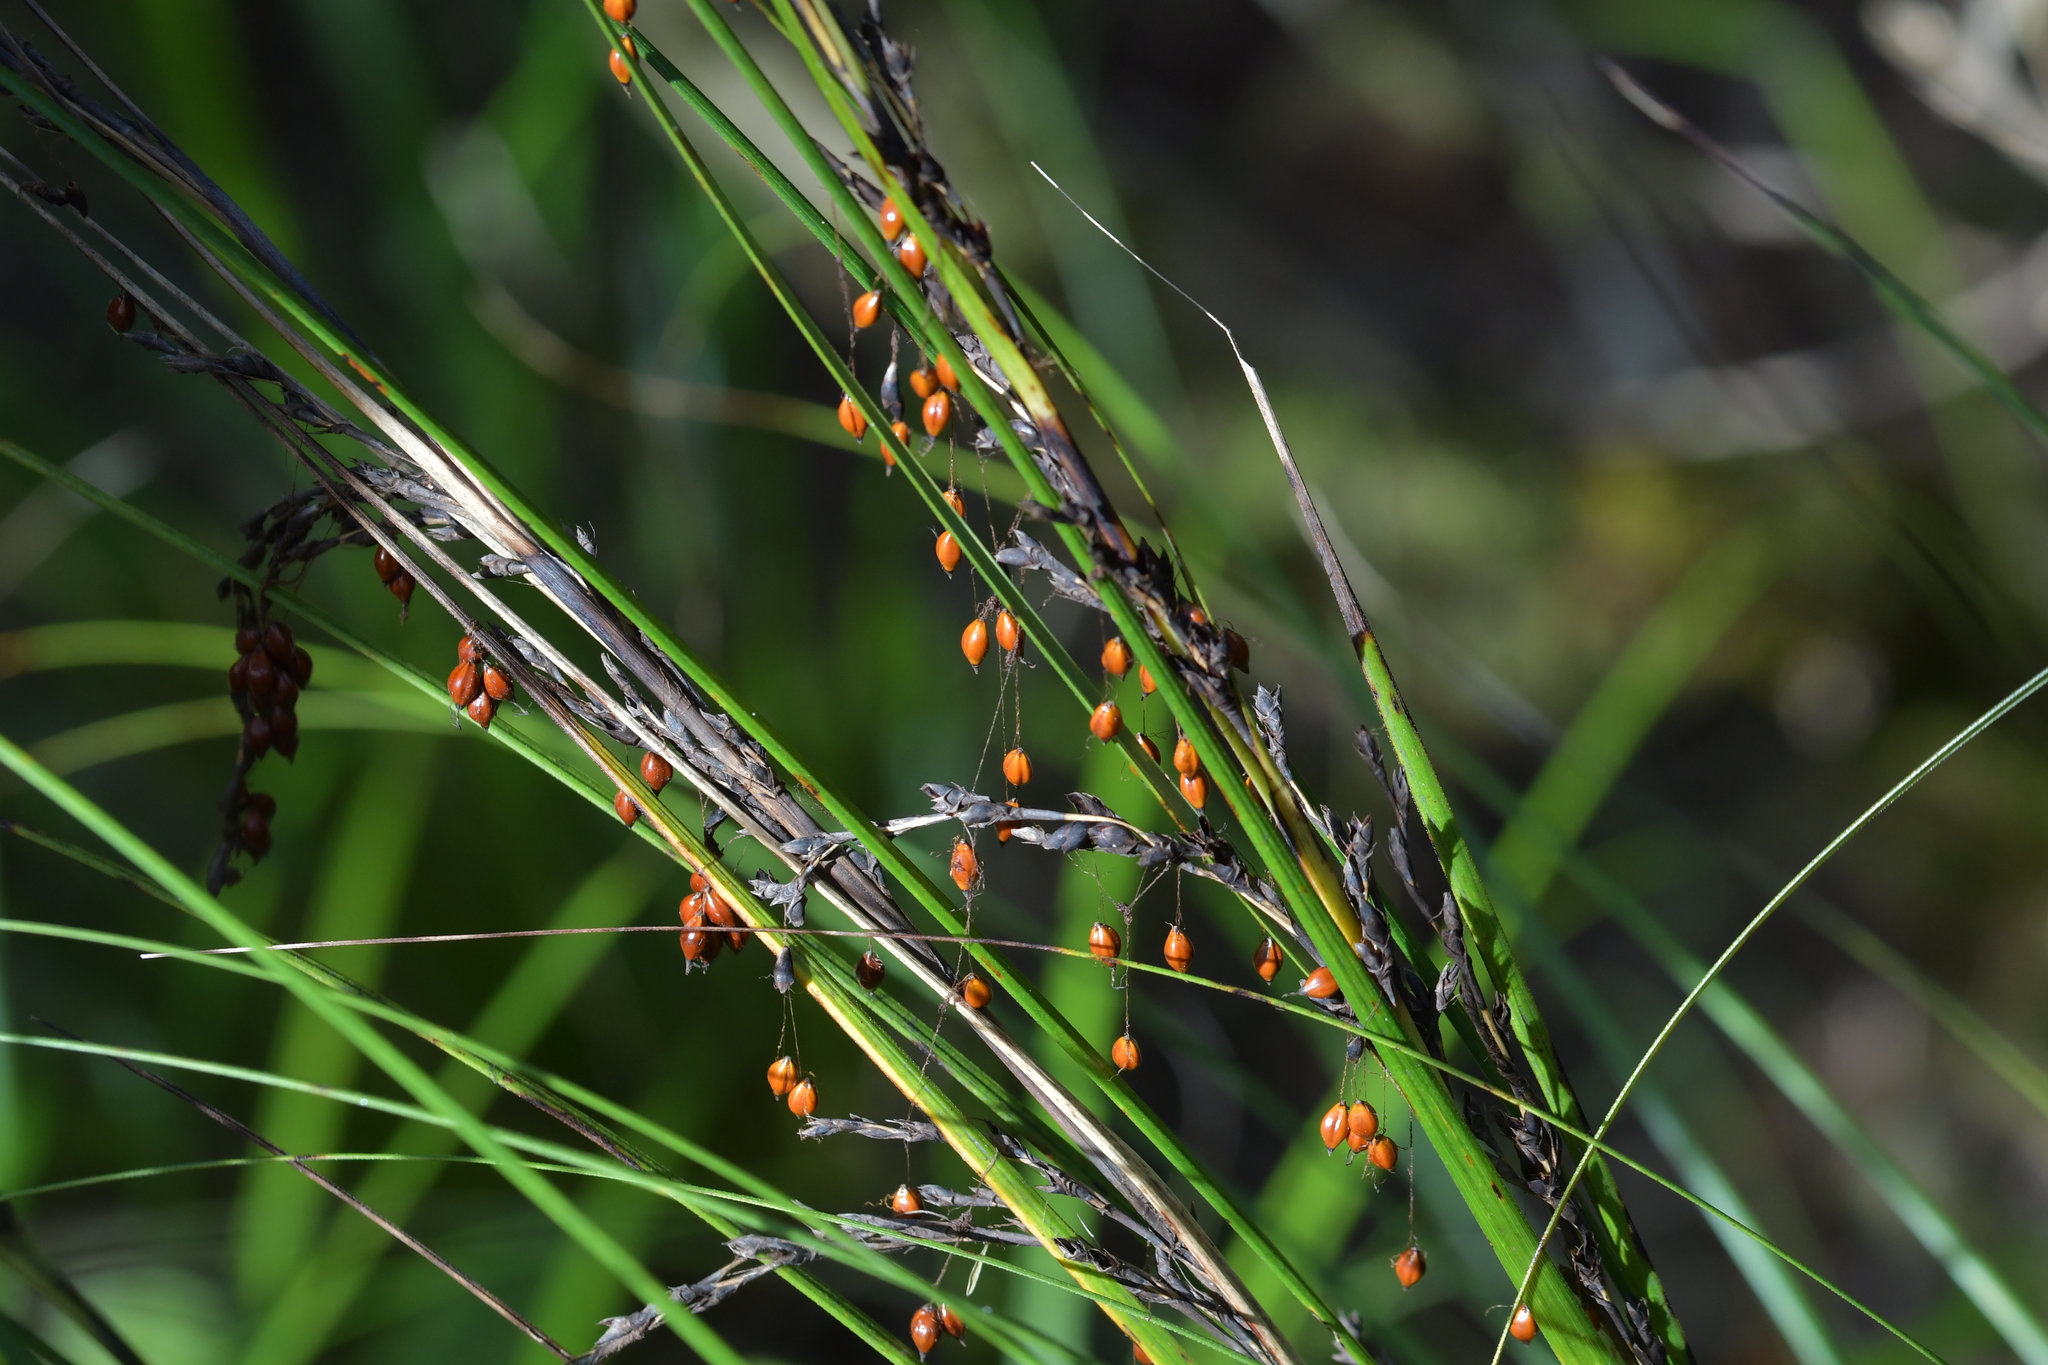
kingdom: Plantae
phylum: Tracheophyta
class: Liliopsida
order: Poales
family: Cyperaceae
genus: Gahnia
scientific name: Gahnia setifolia
